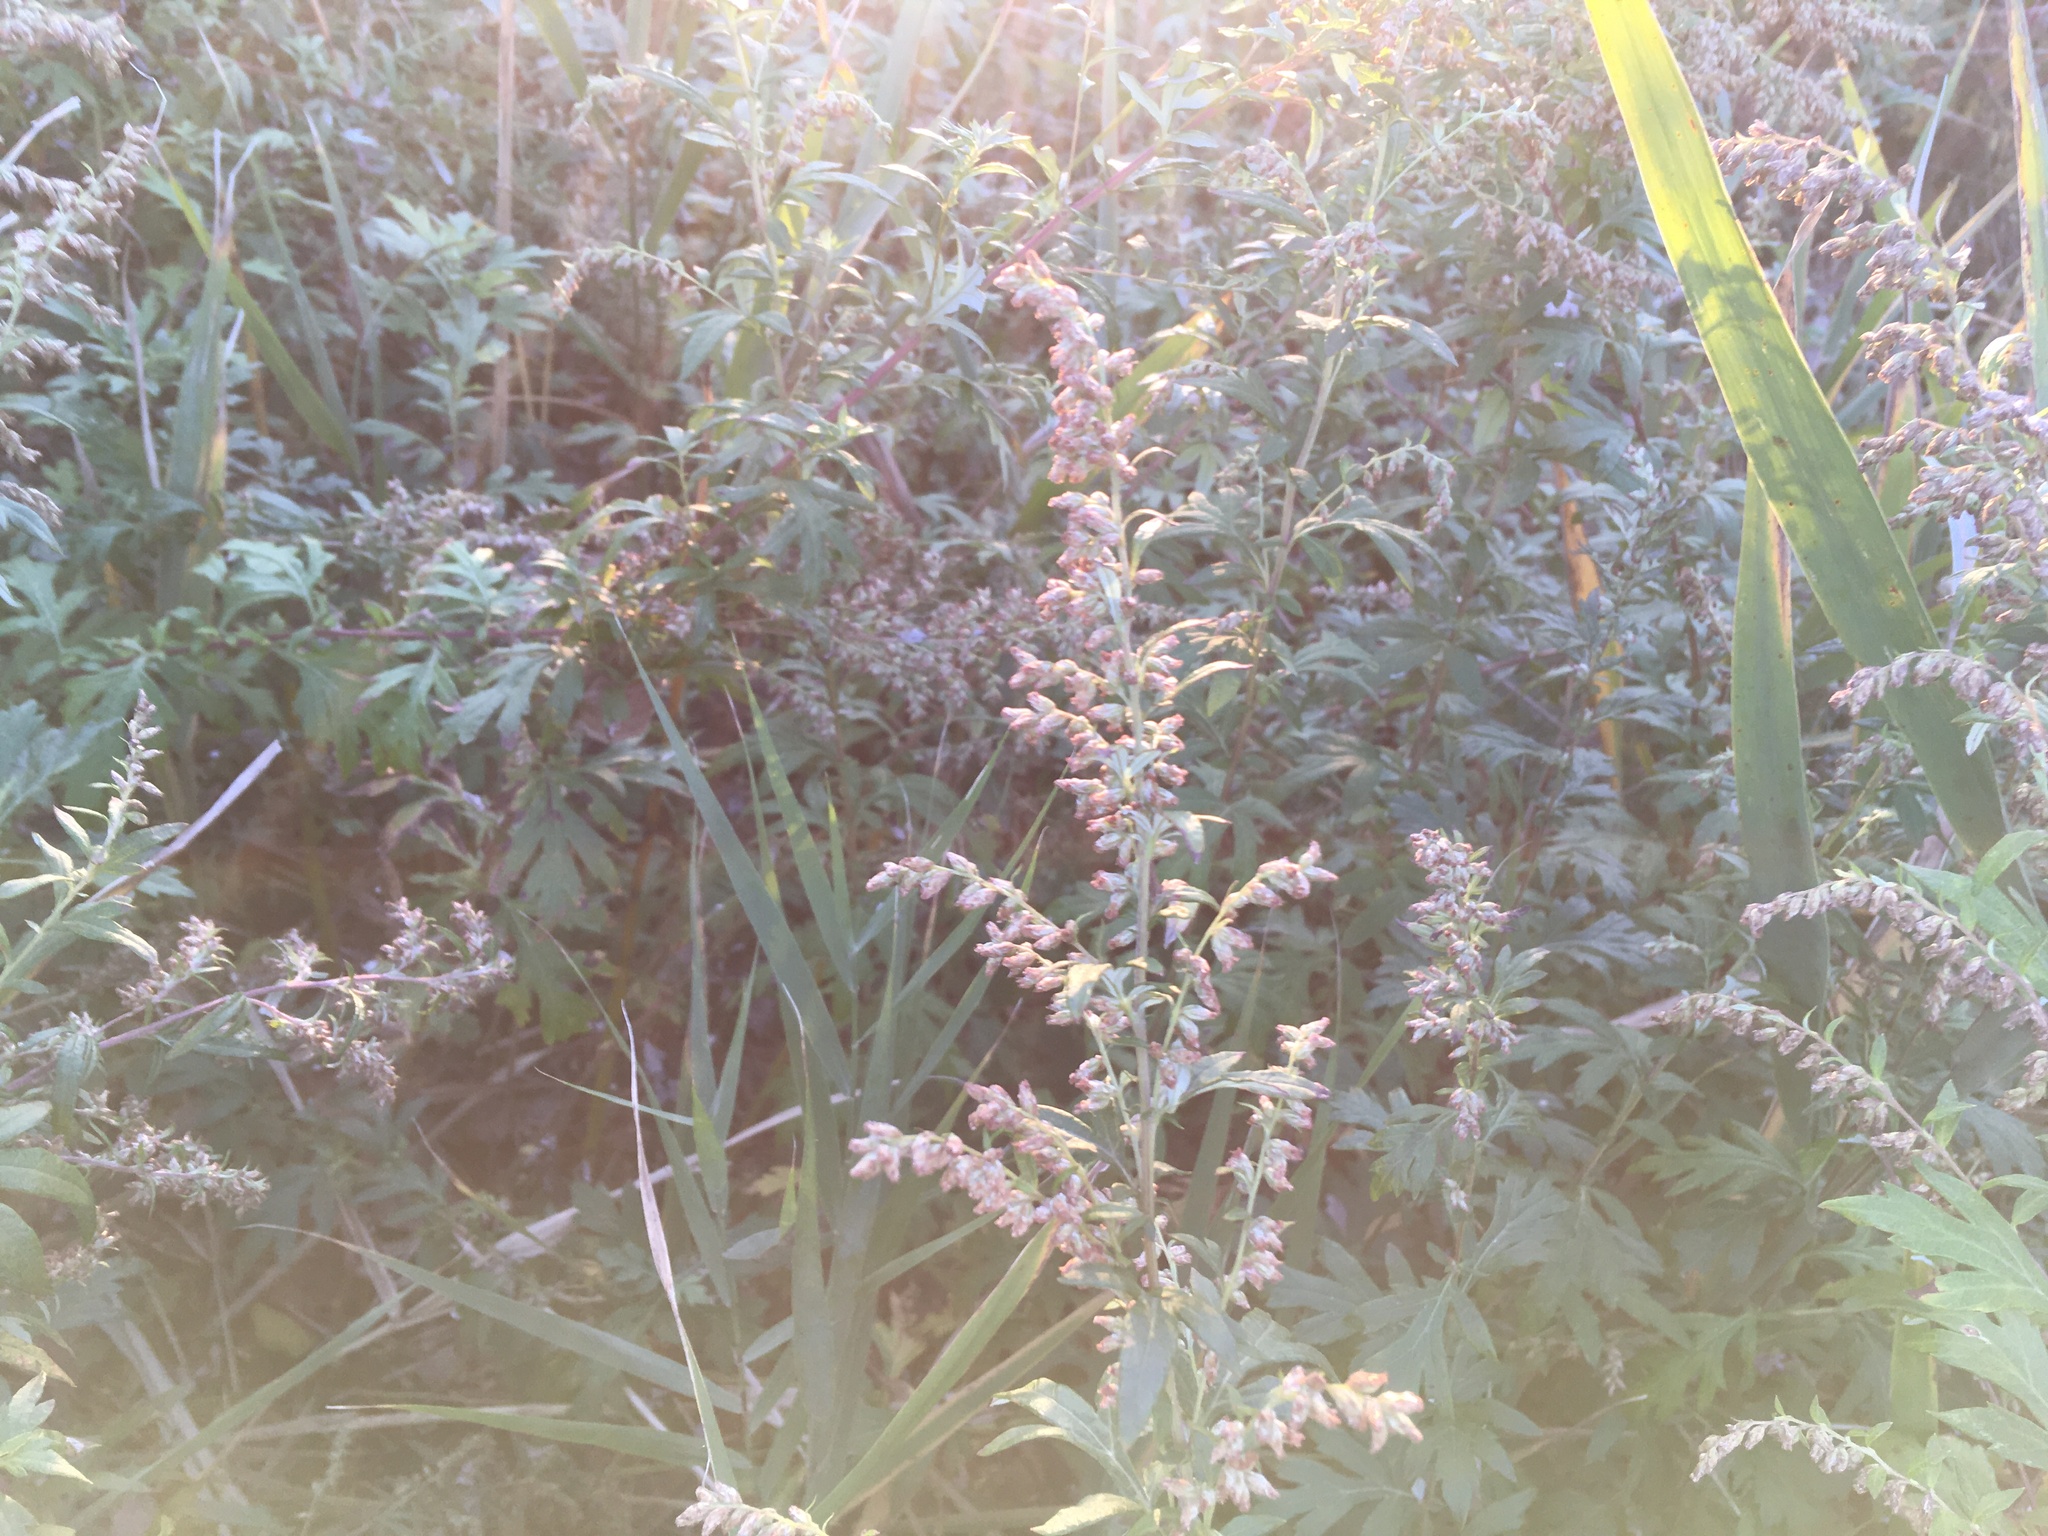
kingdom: Plantae
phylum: Tracheophyta
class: Magnoliopsida
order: Asterales
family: Asteraceae
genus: Artemisia
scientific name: Artemisia vulgaris
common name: Mugwort
